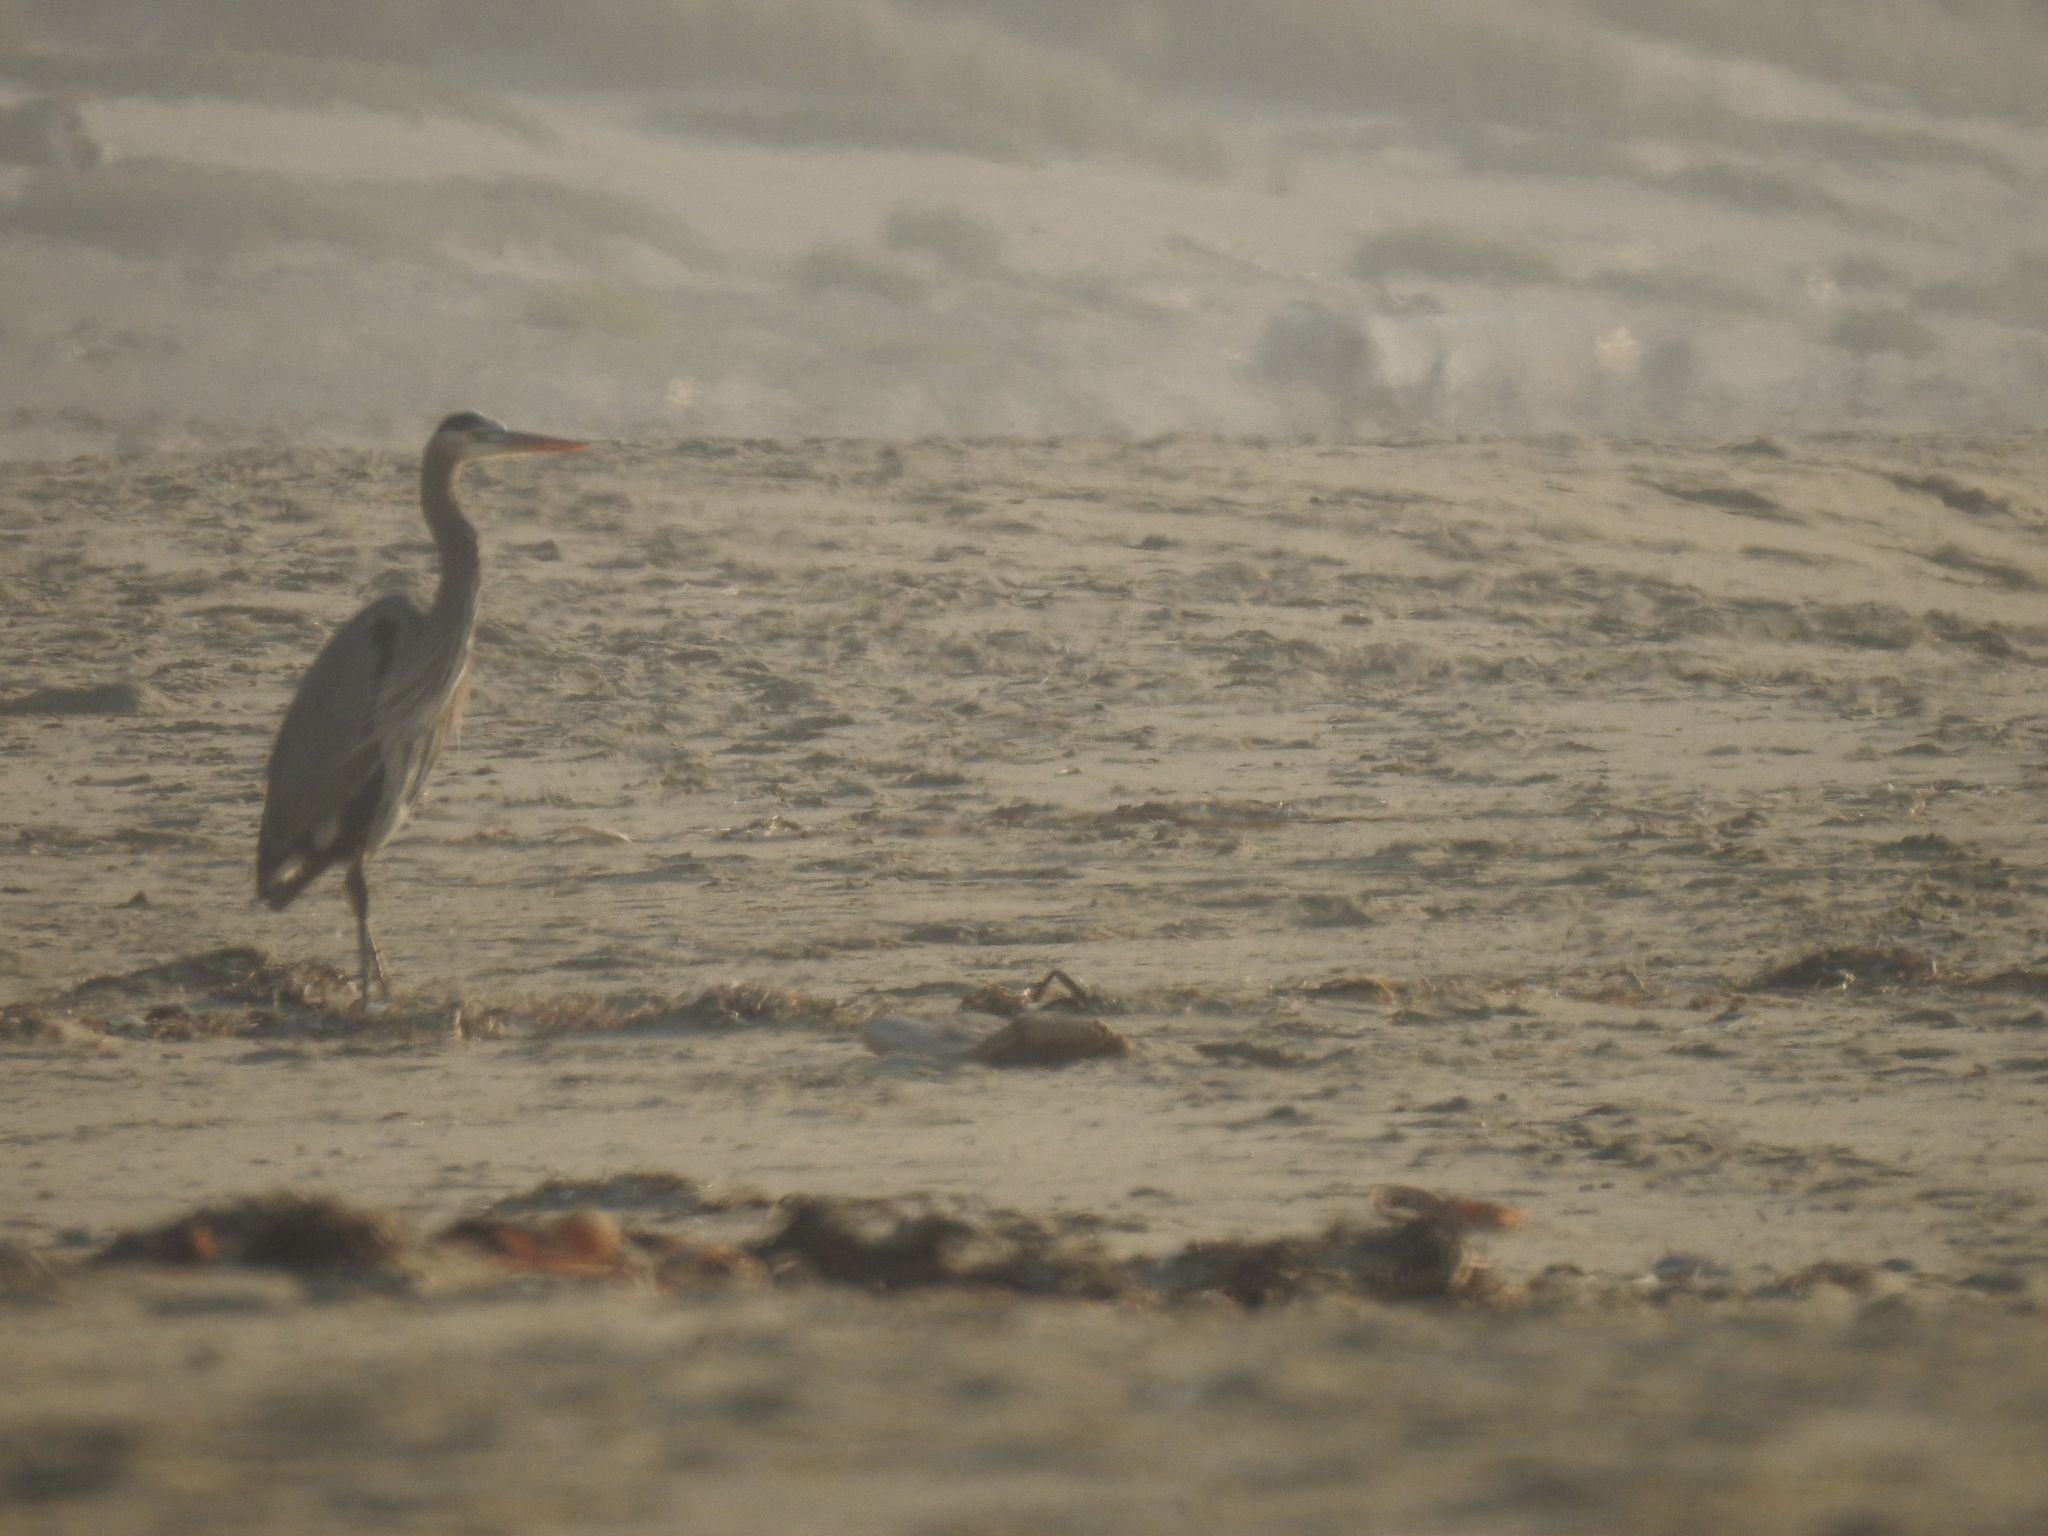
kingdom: Animalia
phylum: Chordata
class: Aves
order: Pelecaniformes
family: Ardeidae
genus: Ardea
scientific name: Ardea herodias
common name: Great blue heron
